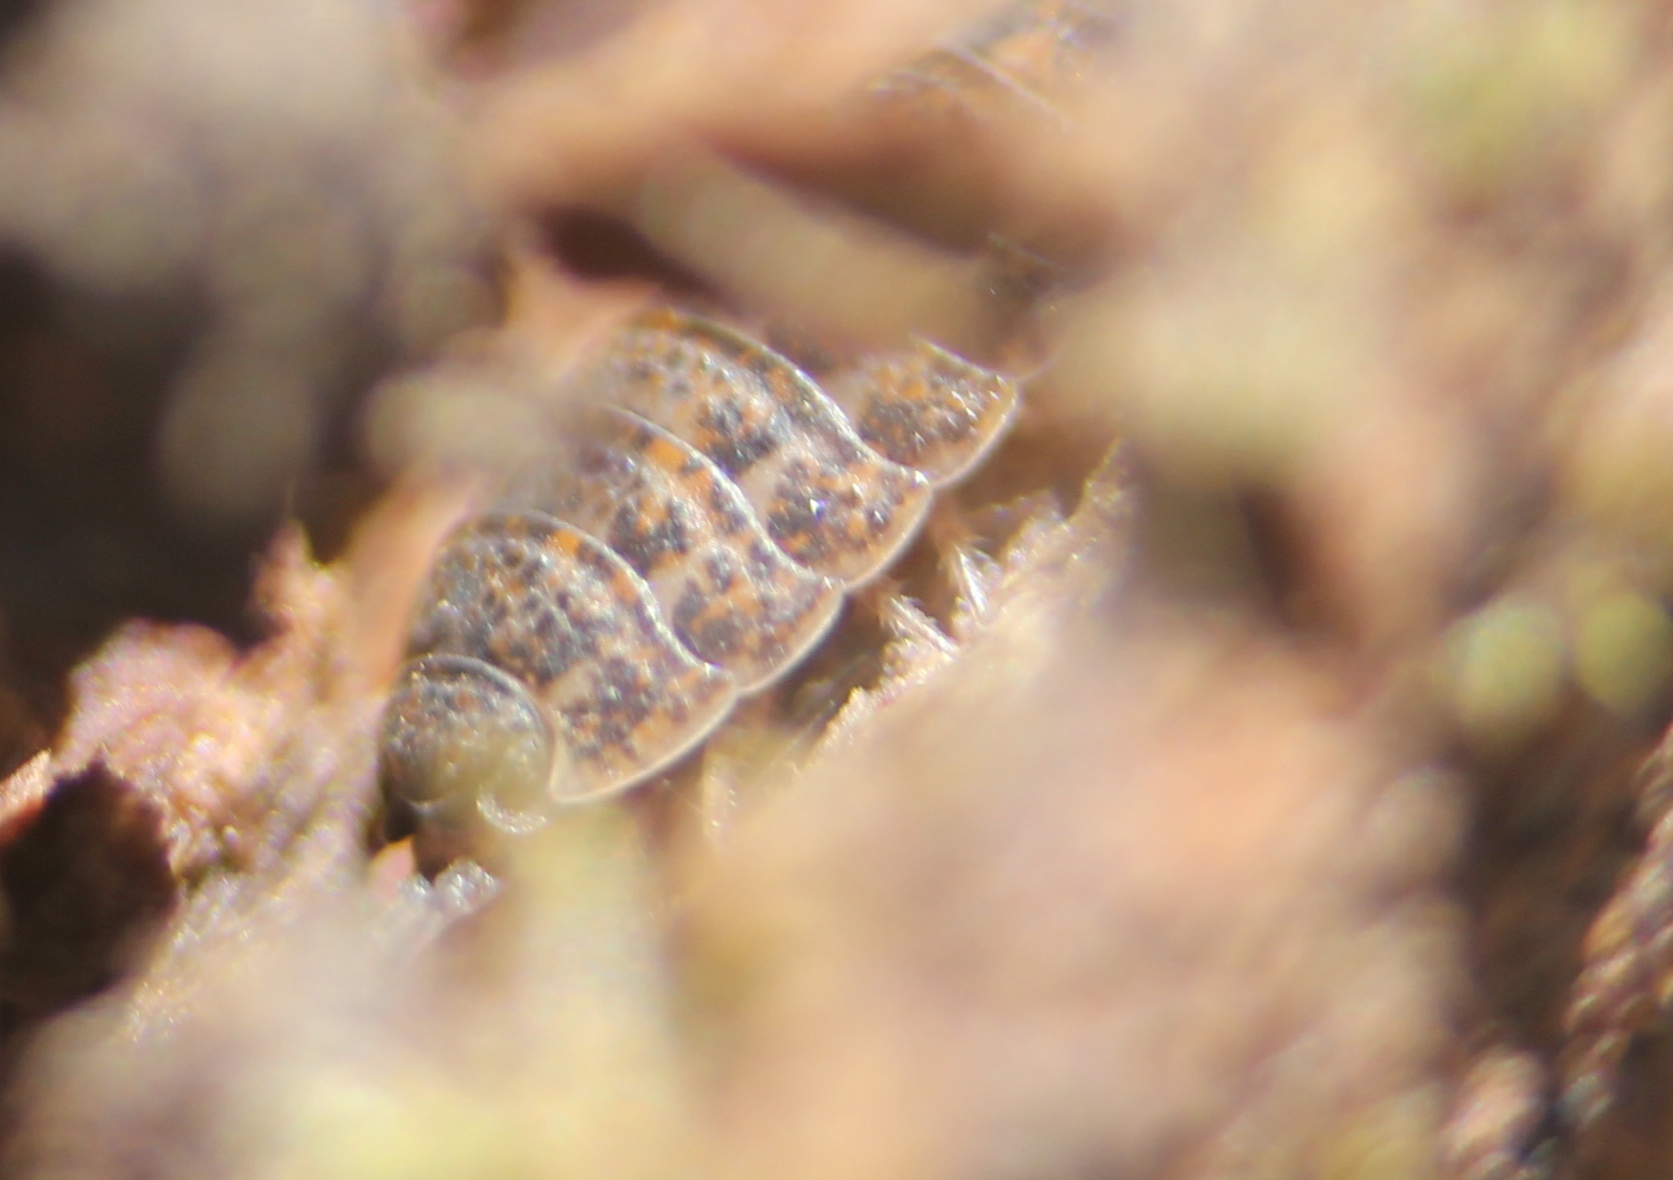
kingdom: Animalia
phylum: Arthropoda
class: Malacostraca
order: Isopoda
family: Trachelipodidae
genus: Trachelipus
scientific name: Trachelipus rathkii
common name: Isopod
